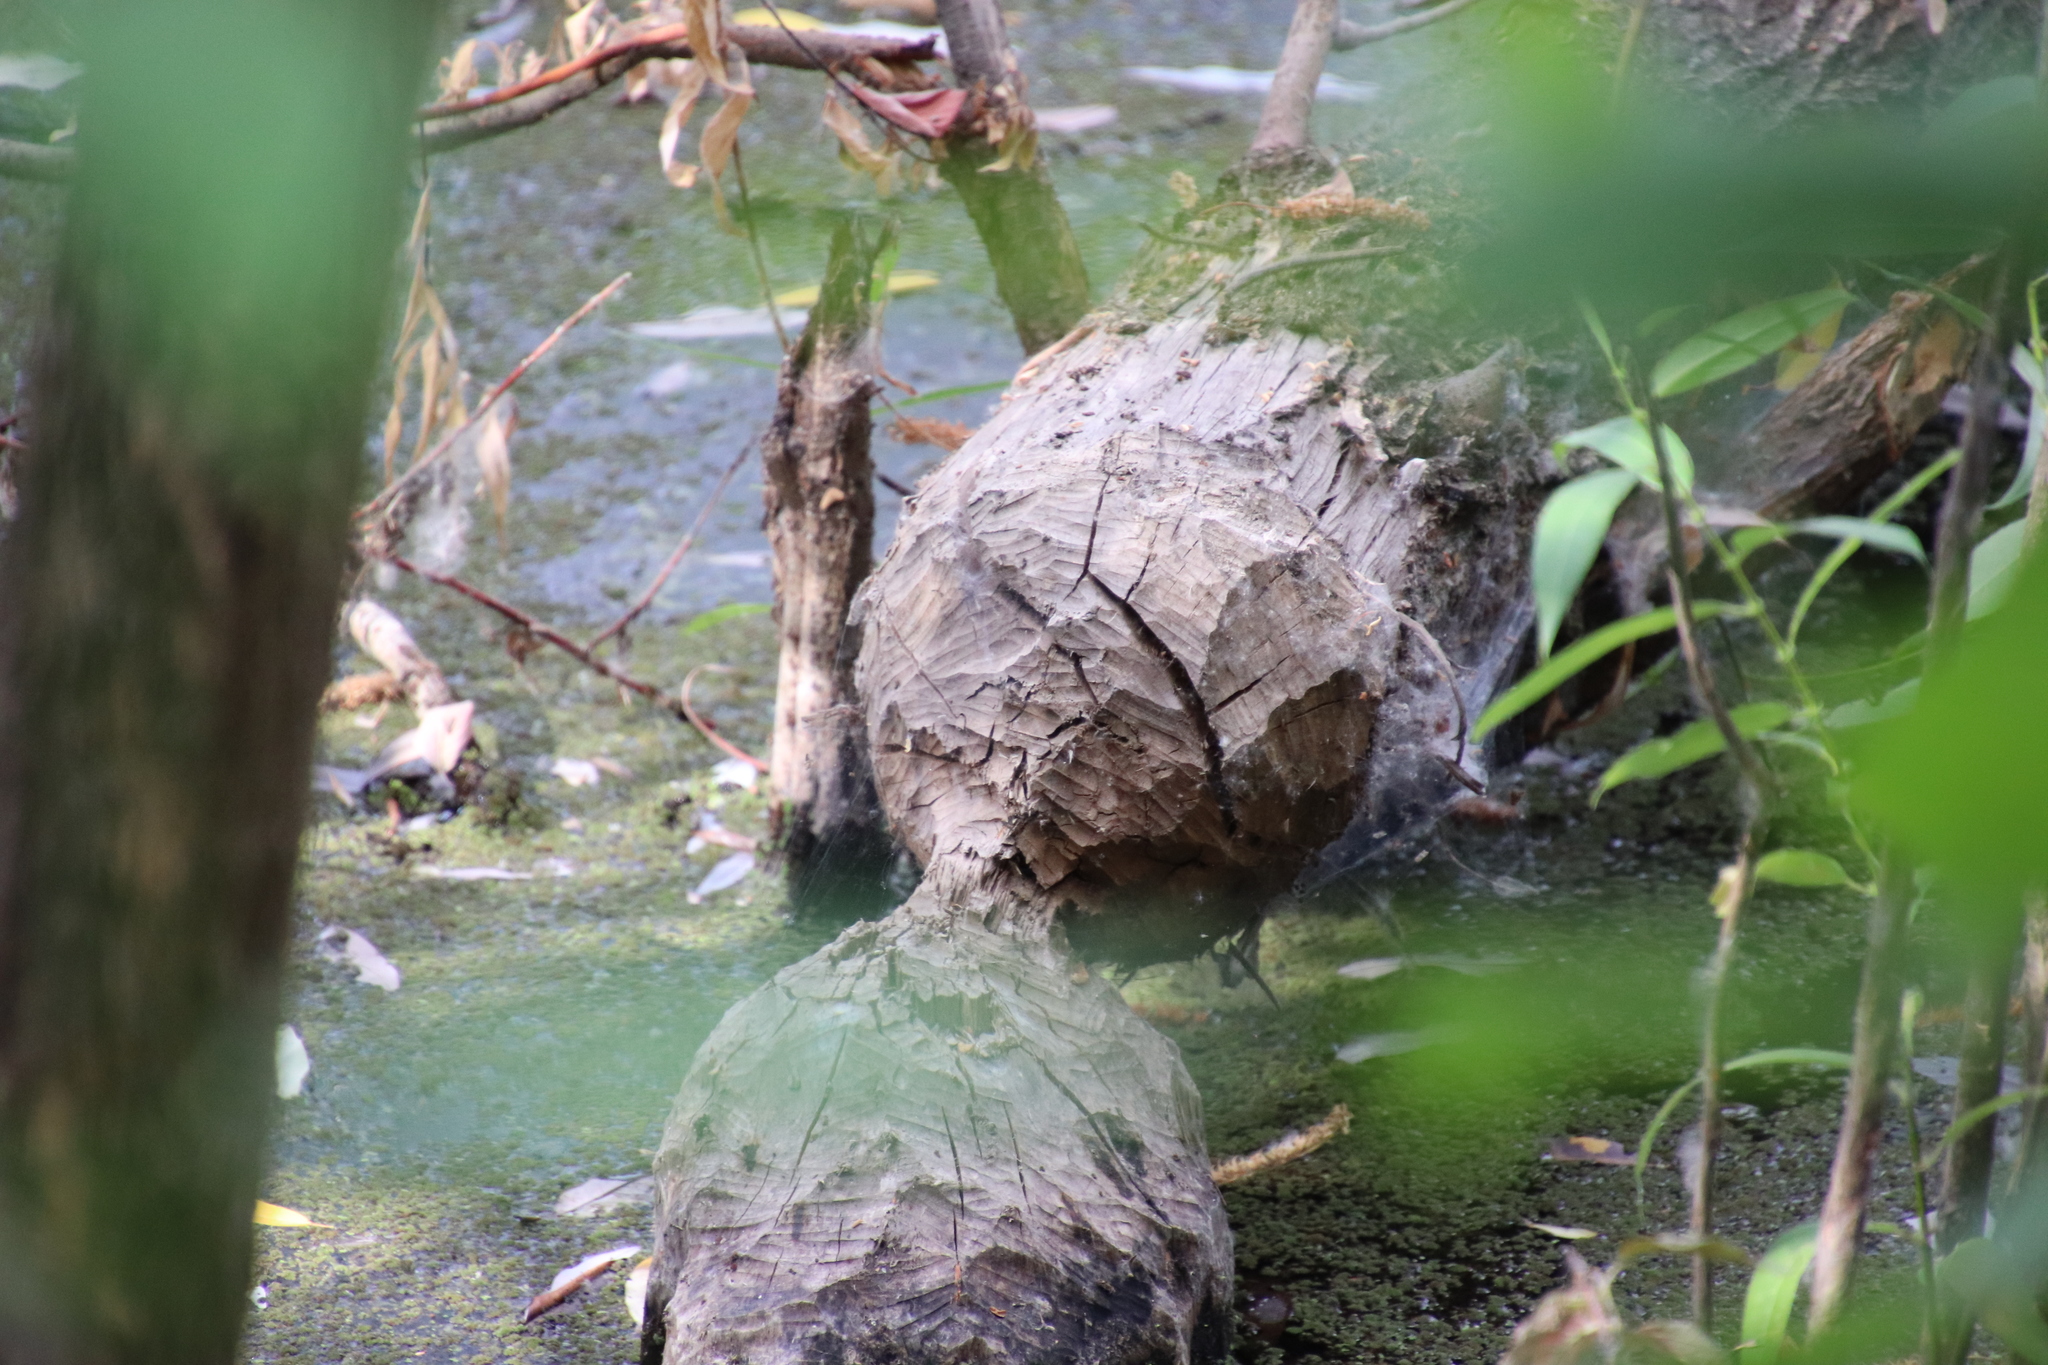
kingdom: Animalia
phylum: Chordata
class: Mammalia
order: Rodentia
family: Castoridae
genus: Castor
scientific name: Castor canadensis
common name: American beaver
